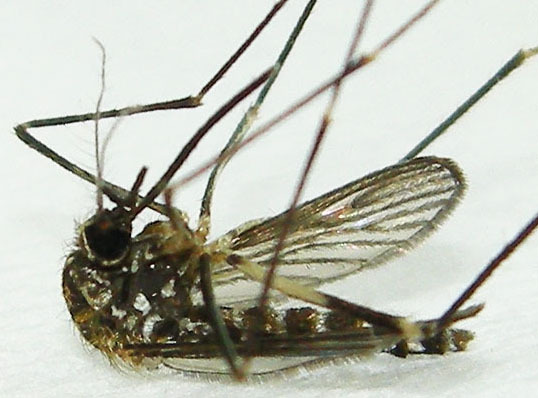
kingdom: Animalia
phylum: Arthropoda
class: Insecta
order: Diptera
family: Culicidae
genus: Aedes
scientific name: Aedes japonicus
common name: Asian bush mosquito
